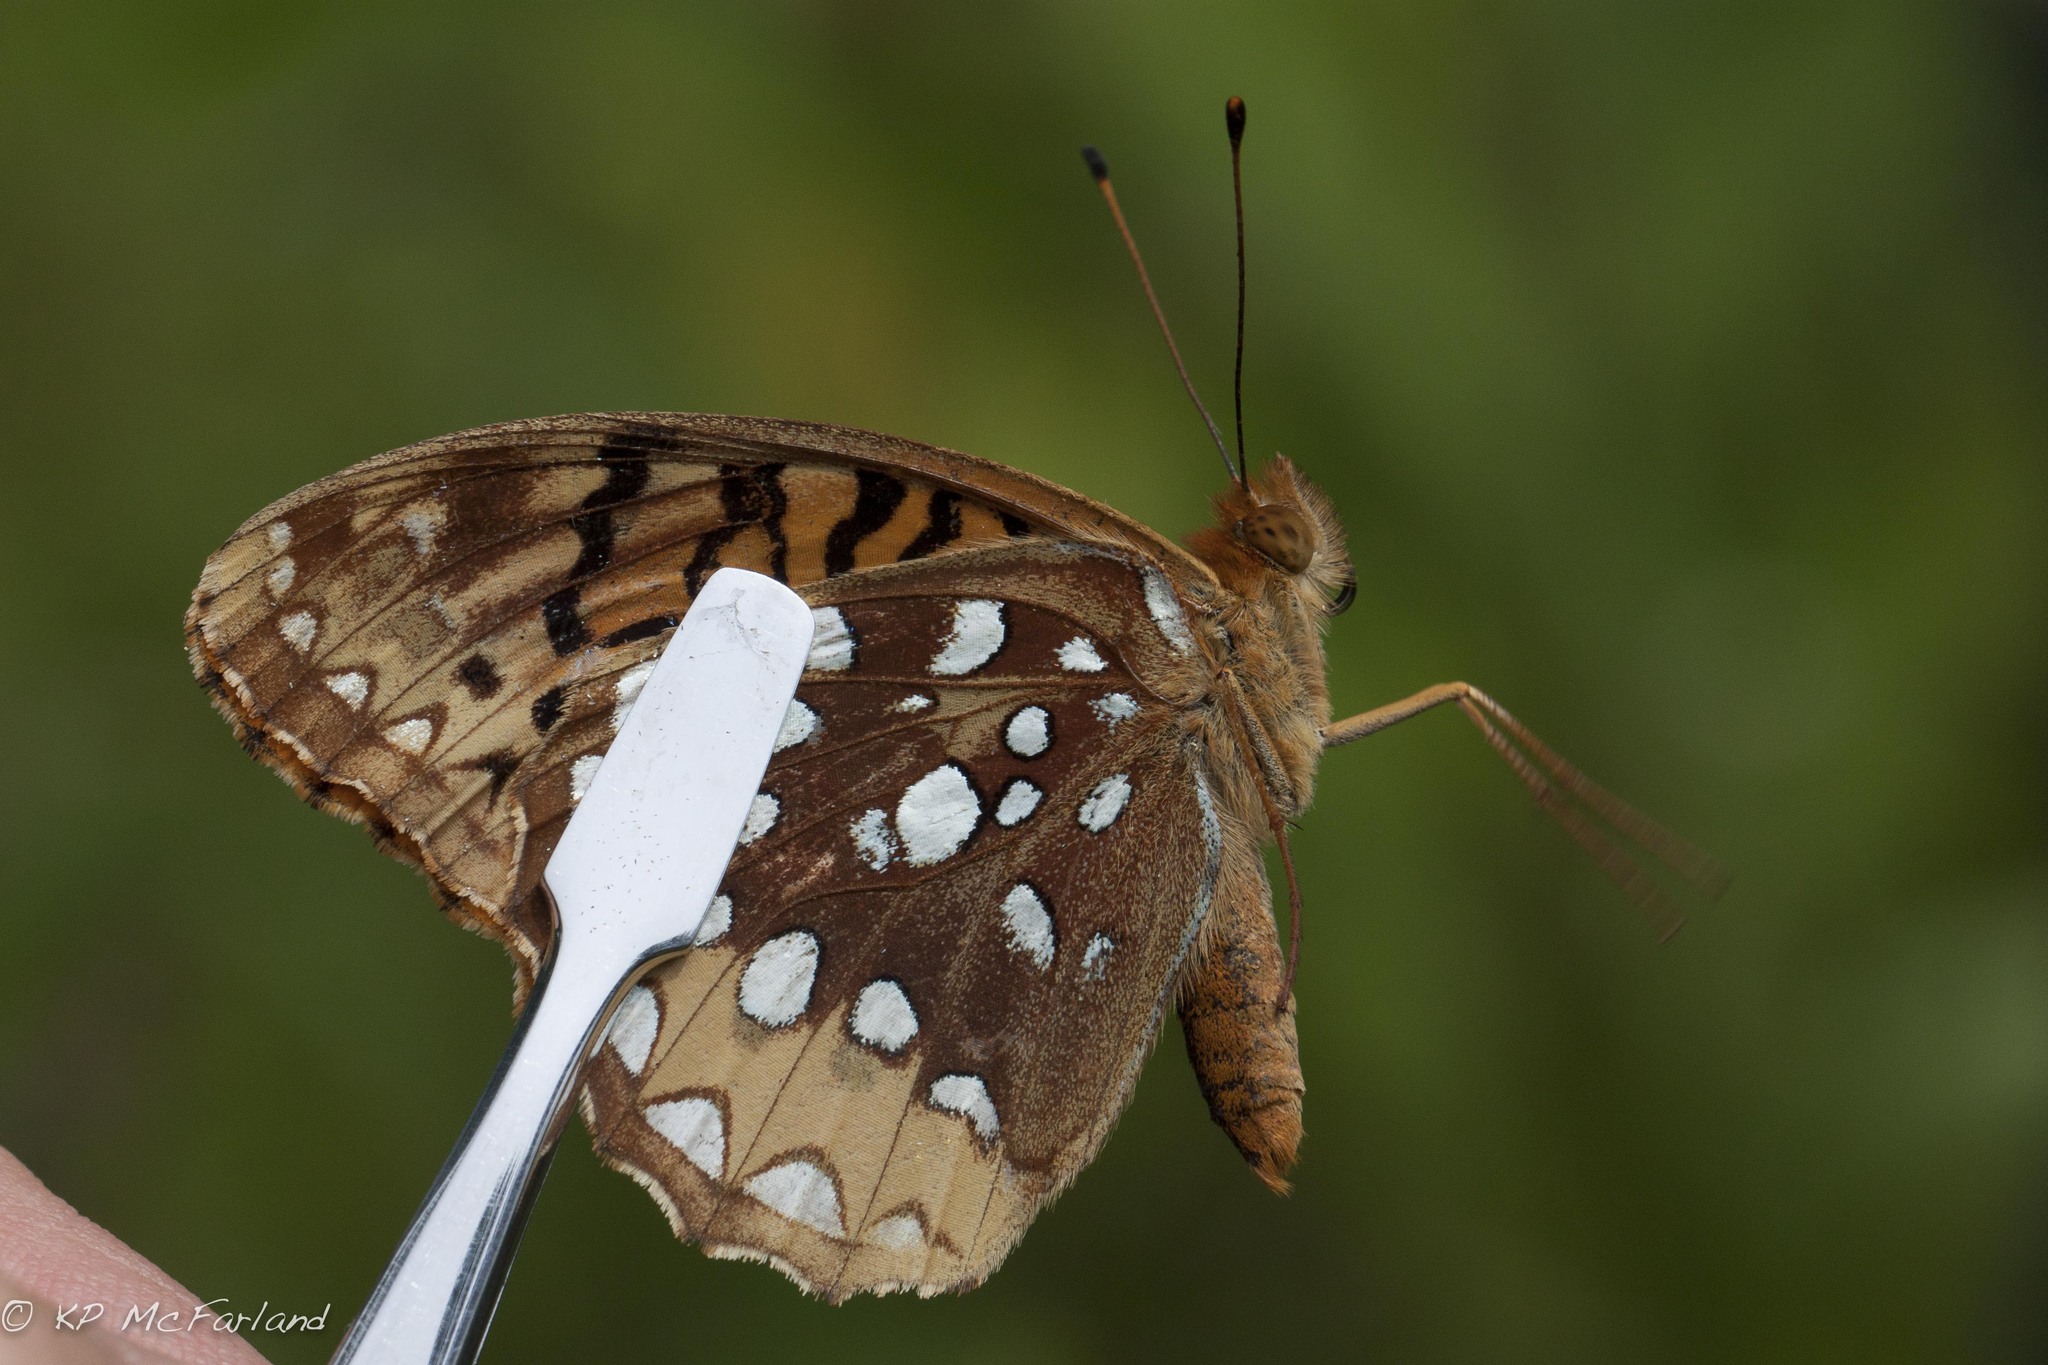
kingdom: Animalia
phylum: Arthropoda
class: Insecta
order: Lepidoptera
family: Nymphalidae
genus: Speyeria
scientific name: Speyeria cybele
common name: Great spangled fritillary
